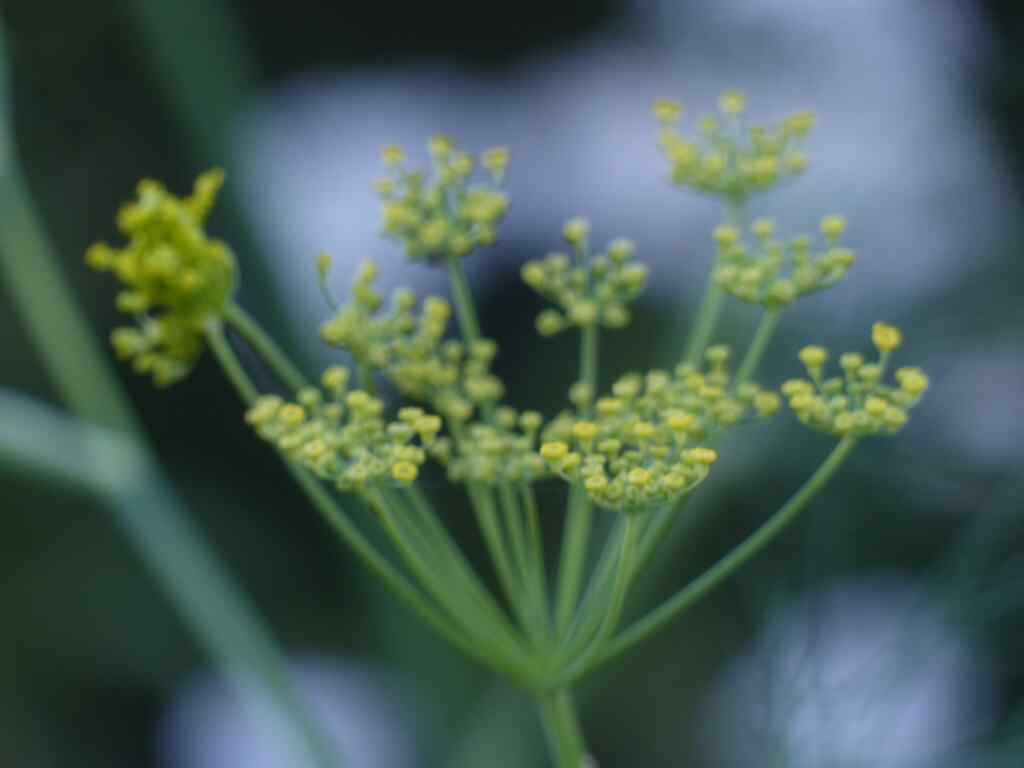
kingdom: Plantae
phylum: Tracheophyta
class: Magnoliopsida
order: Apiales
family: Apiaceae
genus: Foeniculum
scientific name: Foeniculum vulgare
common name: Fennel
